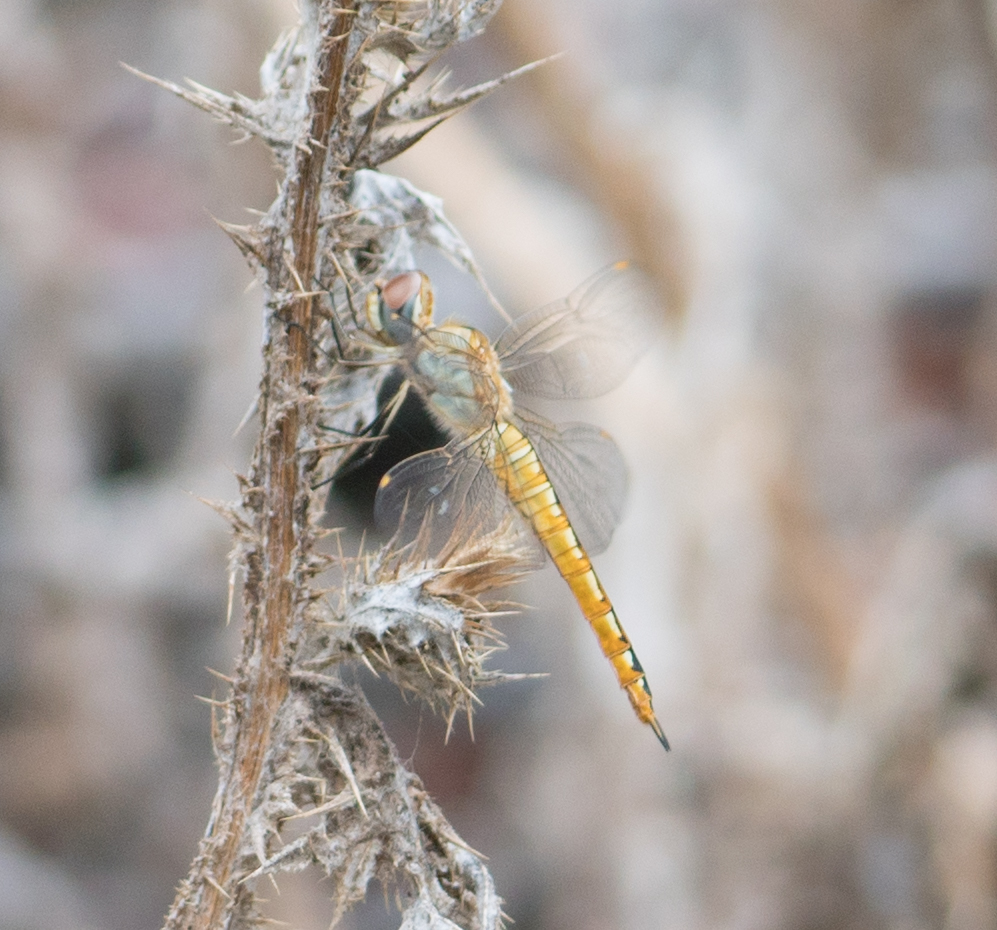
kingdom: Animalia
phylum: Arthropoda
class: Insecta
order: Odonata
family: Libellulidae
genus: Pantala
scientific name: Pantala flavescens
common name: Wandering glider
